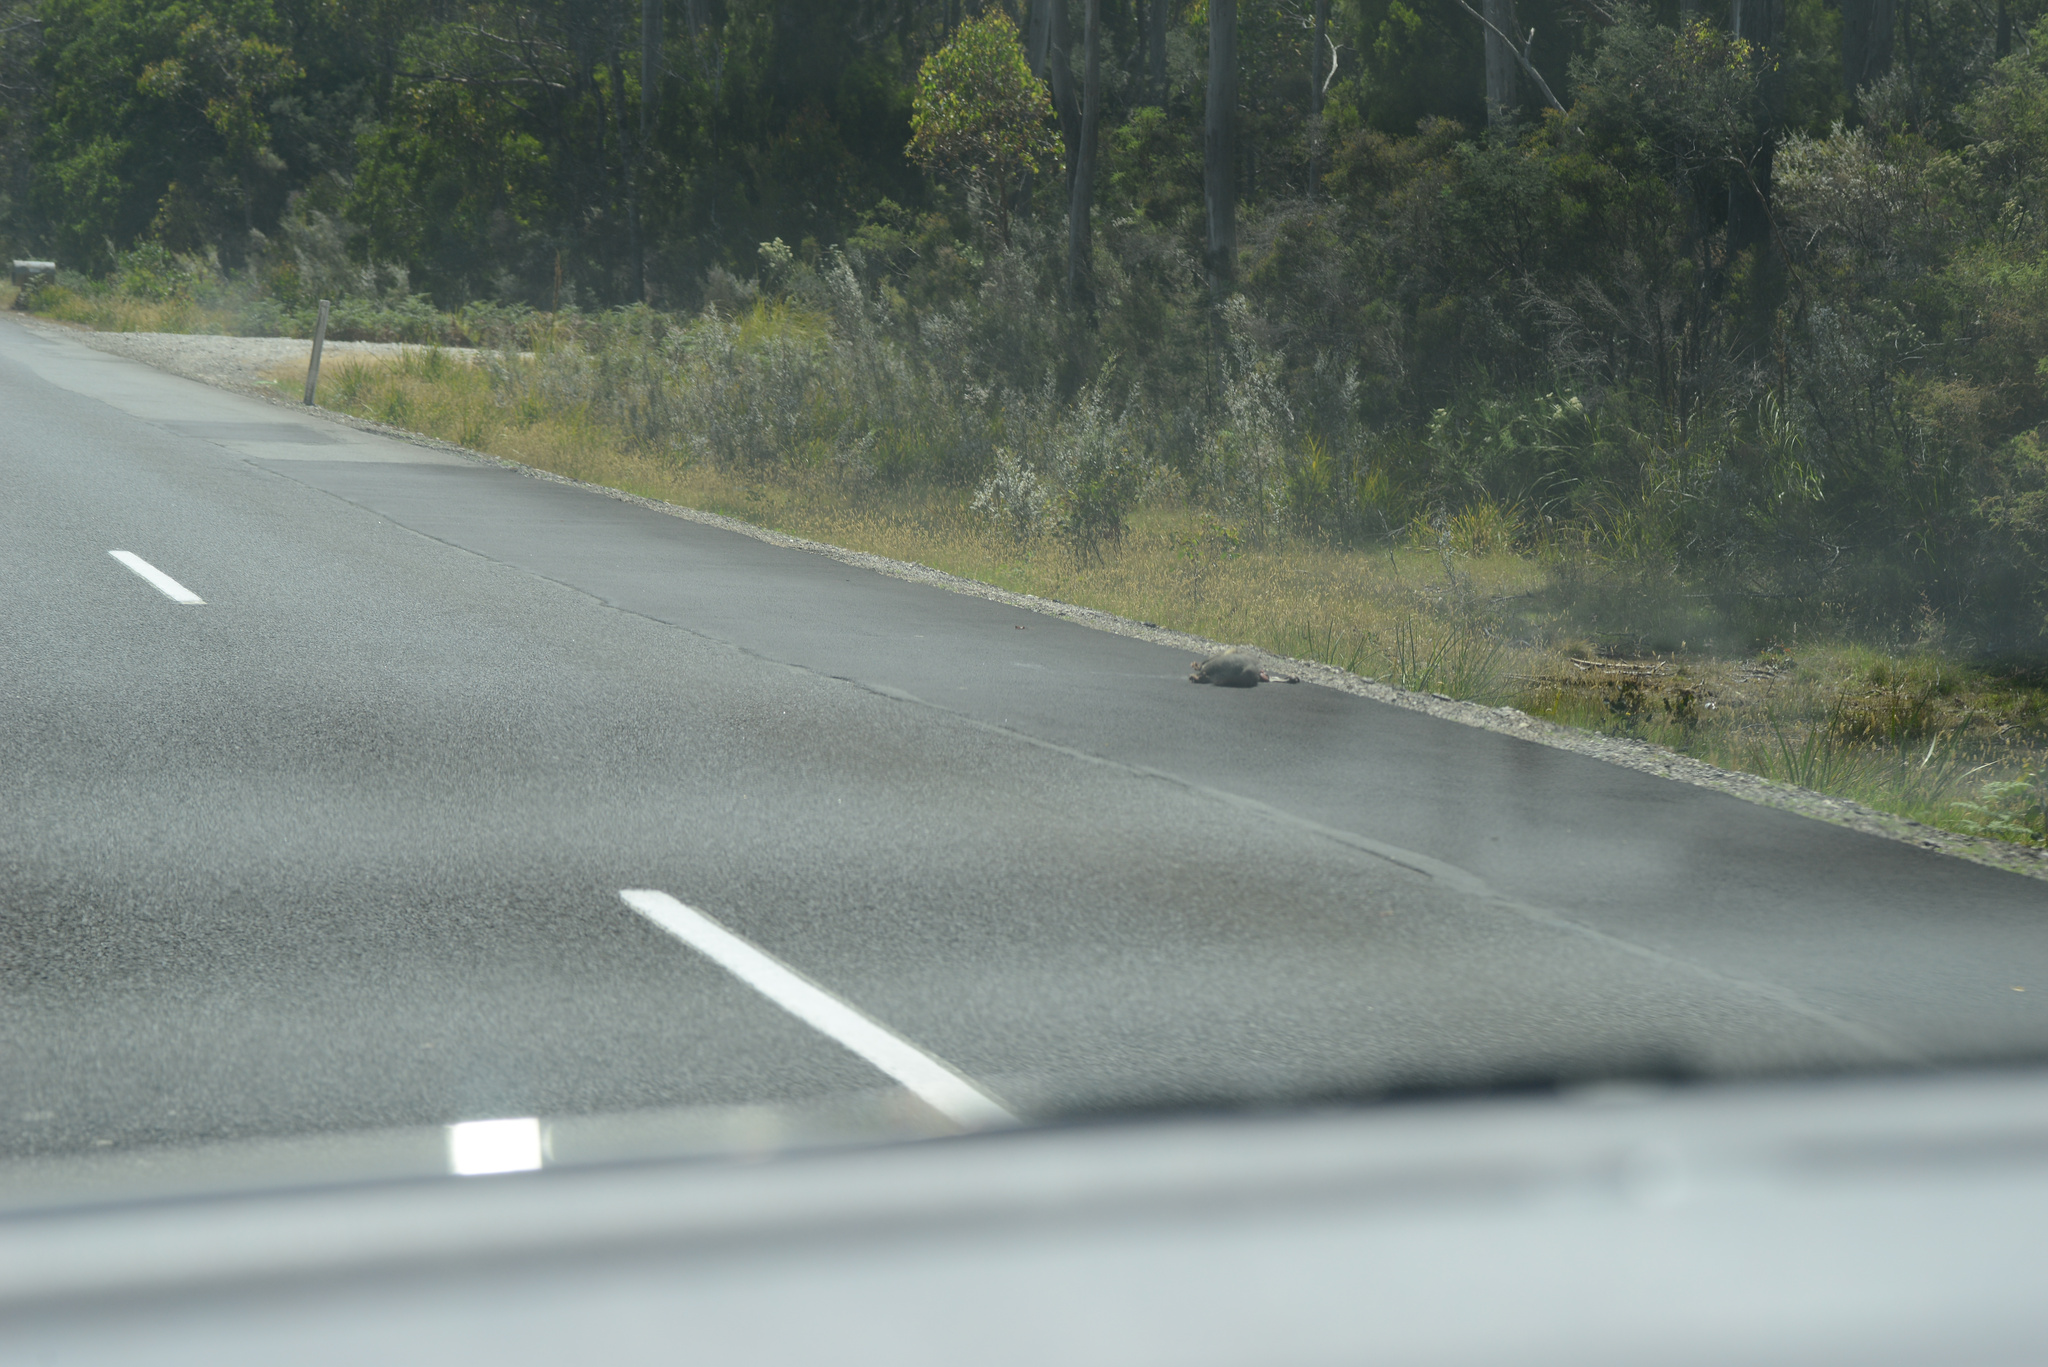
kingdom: Animalia
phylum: Chordata
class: Mammalia
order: Diprotodontia
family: Phalangeridae
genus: Trichosurus
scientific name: Trichosurus vulpecula
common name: Common brushtail
